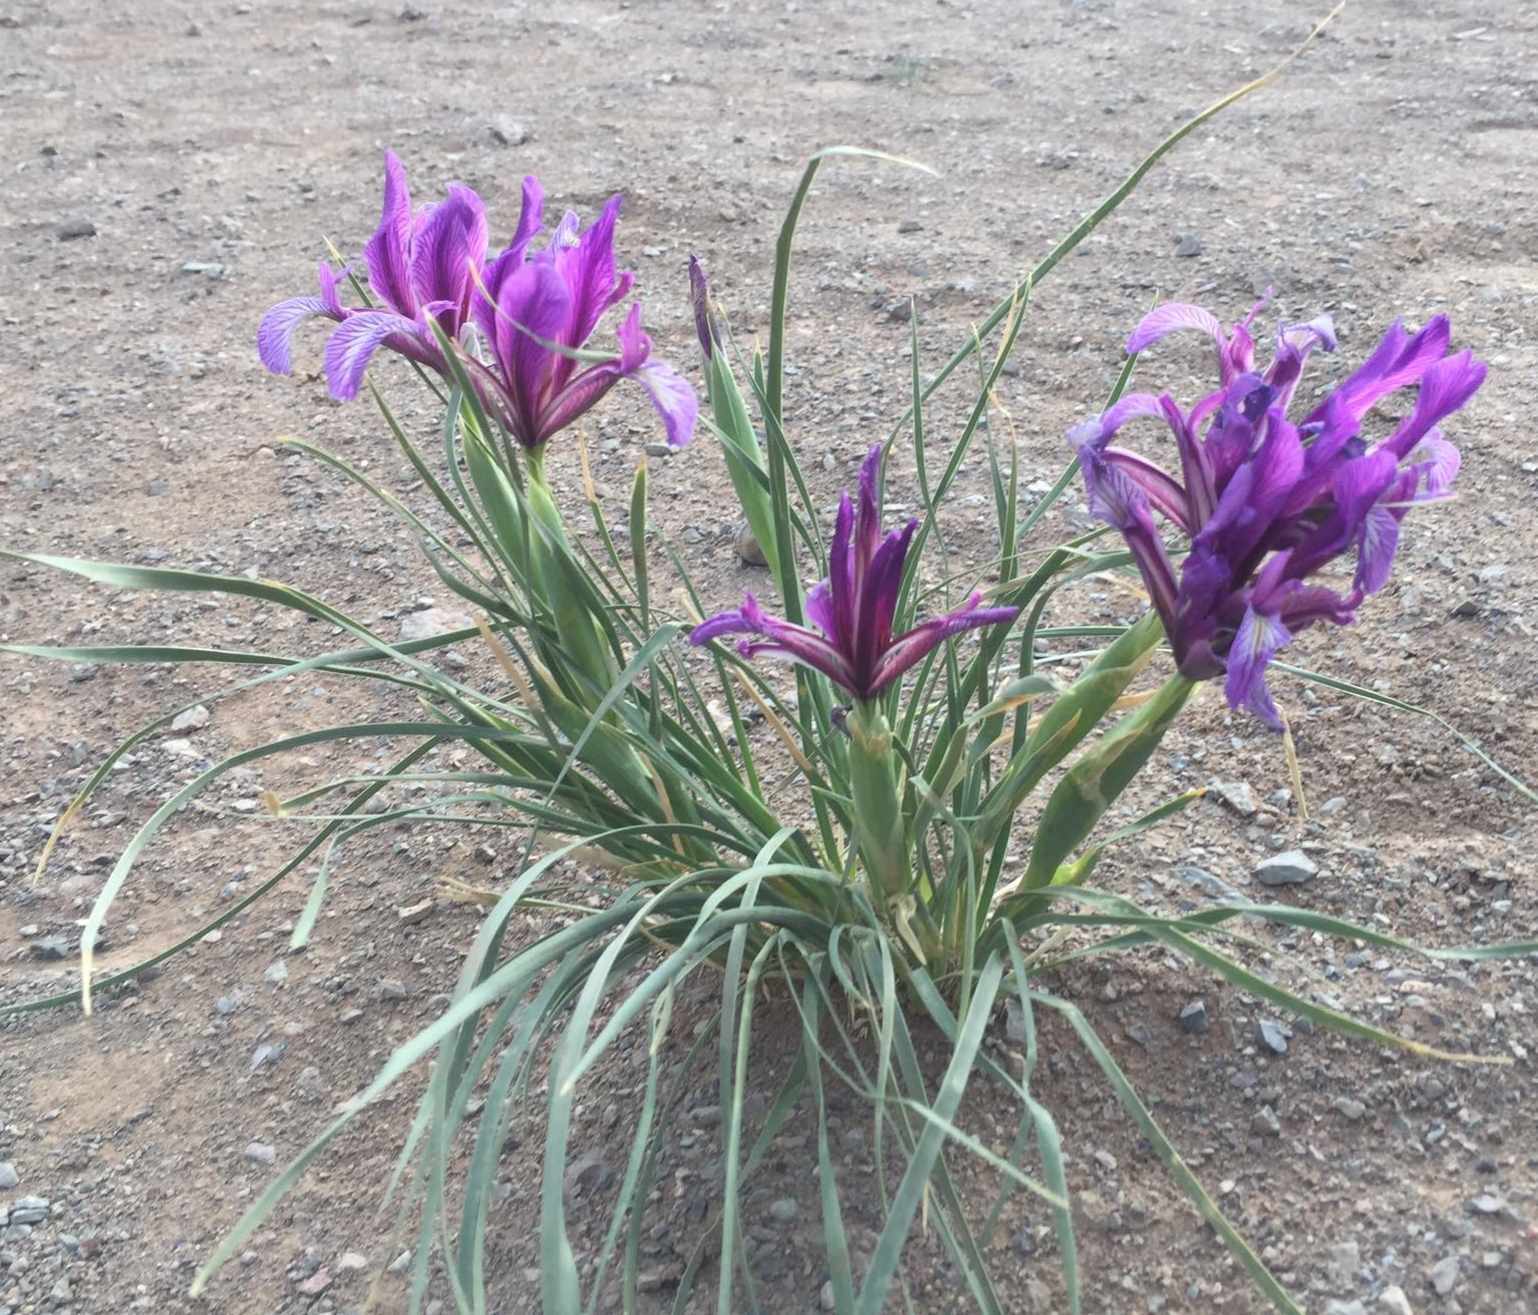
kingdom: Plantae
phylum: Tracheophyta
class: Liliopsida
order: Asparagales
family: Iridaceae
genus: Iris
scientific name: Iris bungei
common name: Large-bract iris
